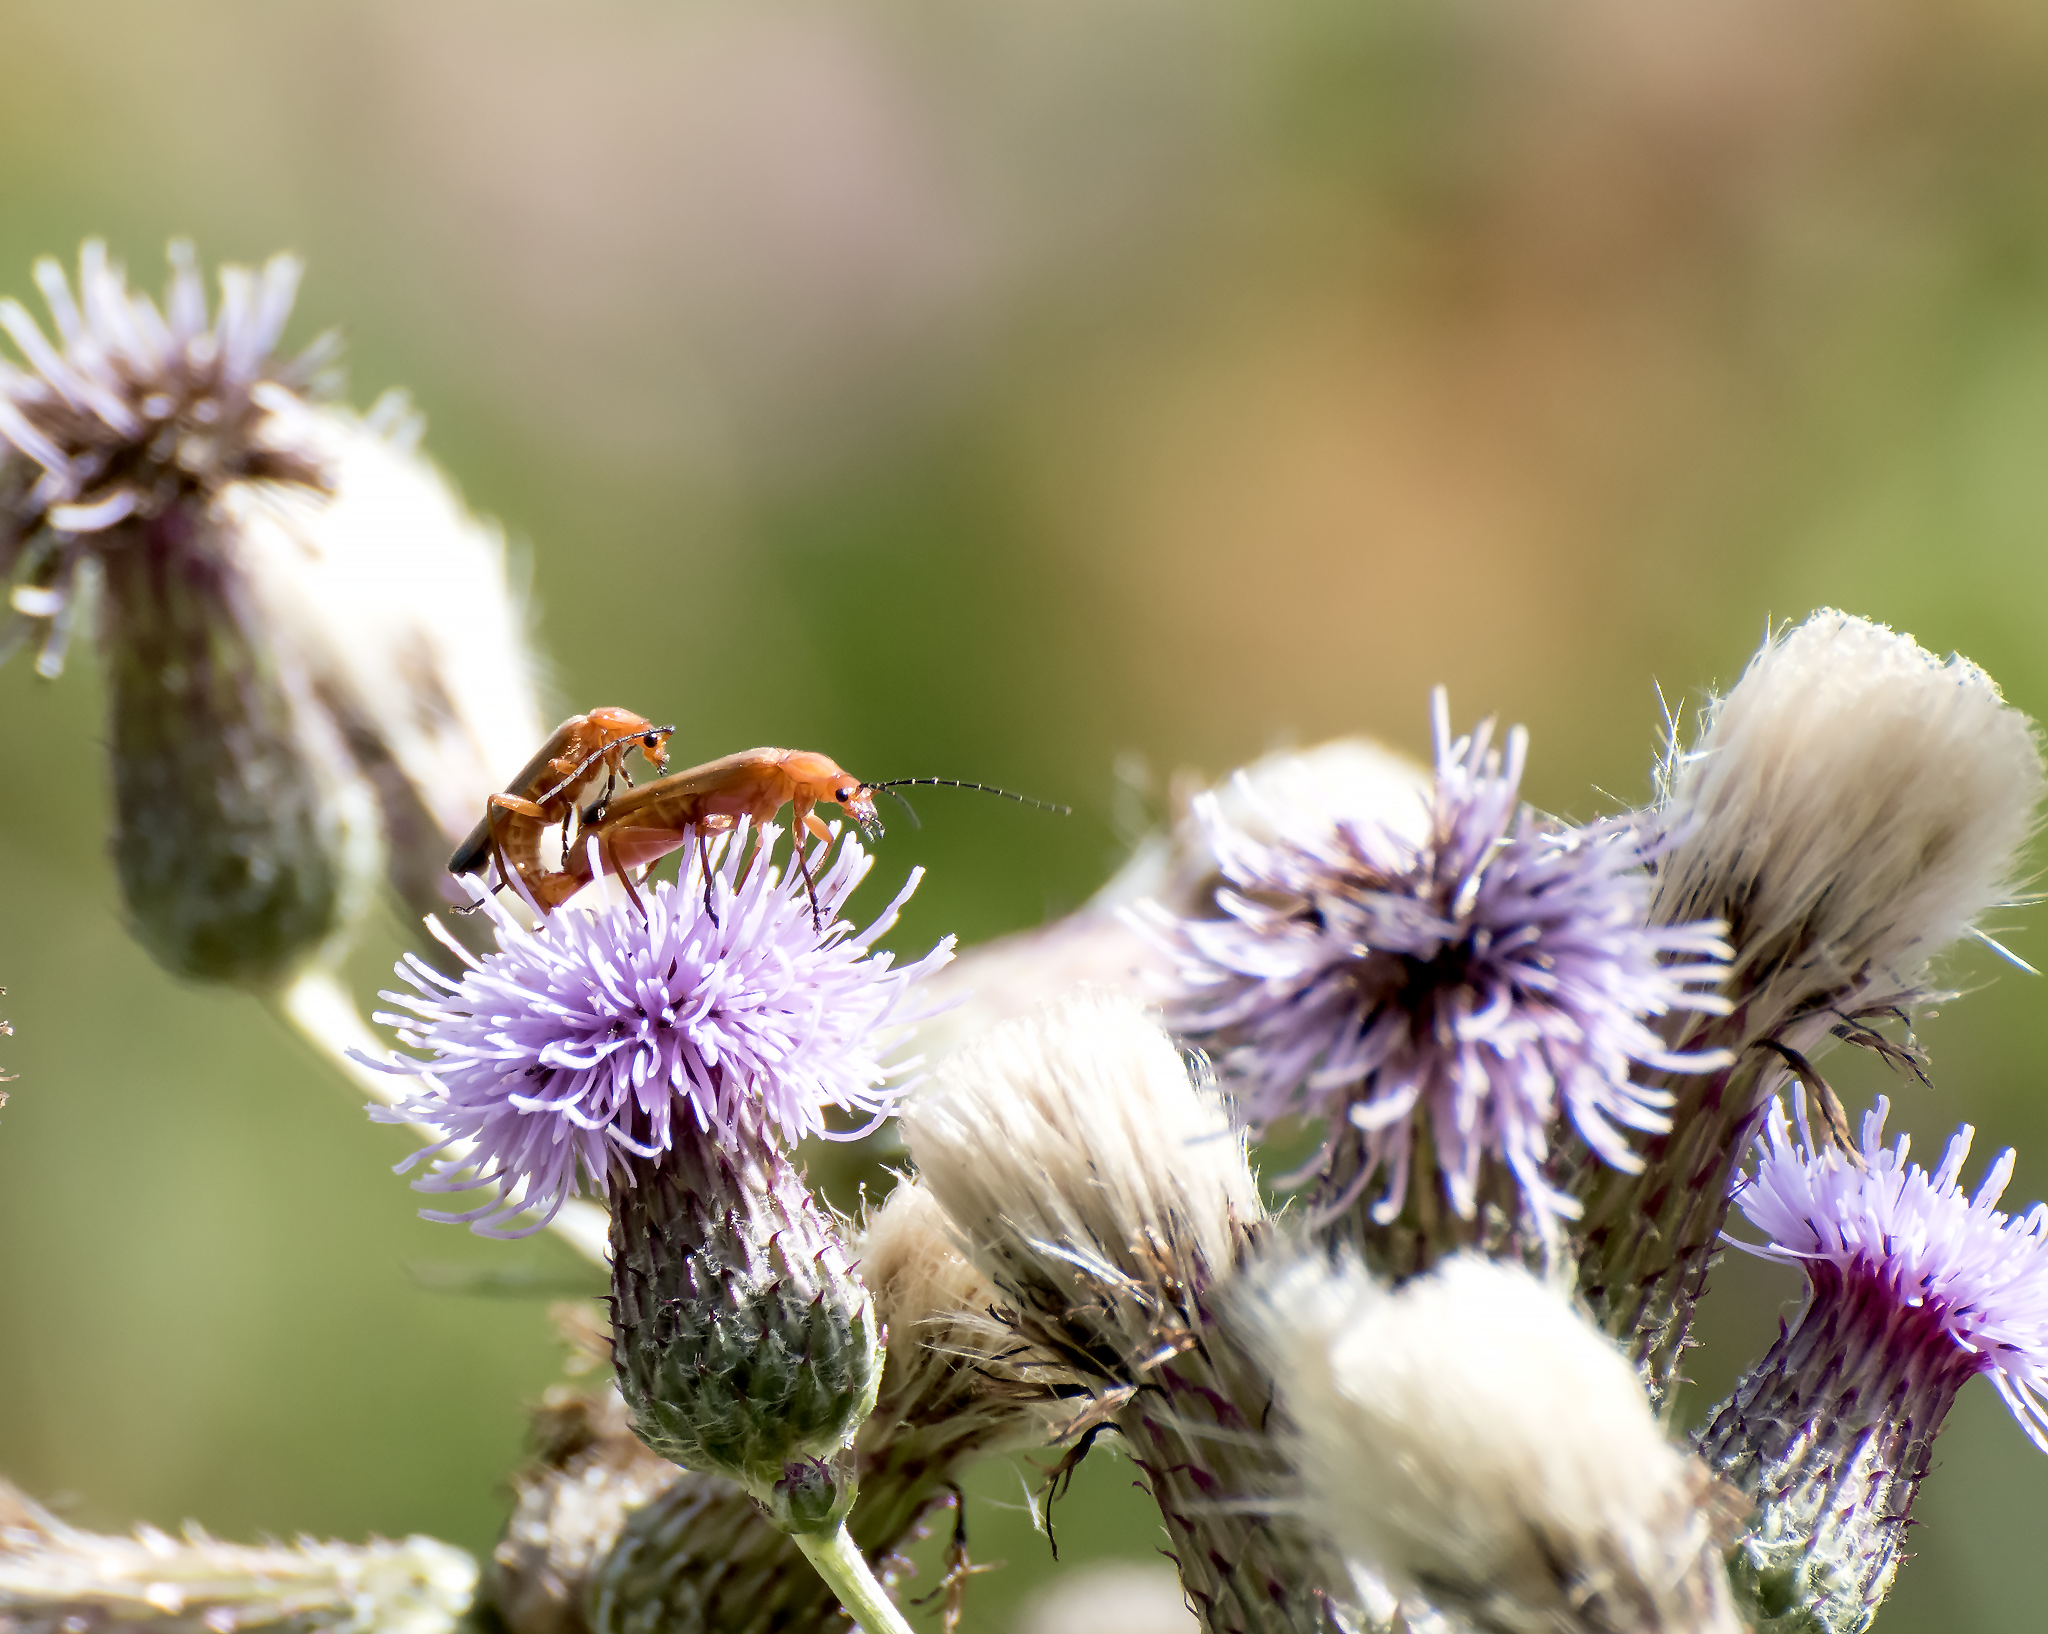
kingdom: Animalia
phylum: Arthropoda
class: Insecta
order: Coleoptera
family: Cantharidae
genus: Rhagonycha
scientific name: Rhagonycha fulva
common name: Common red soldier beetle
